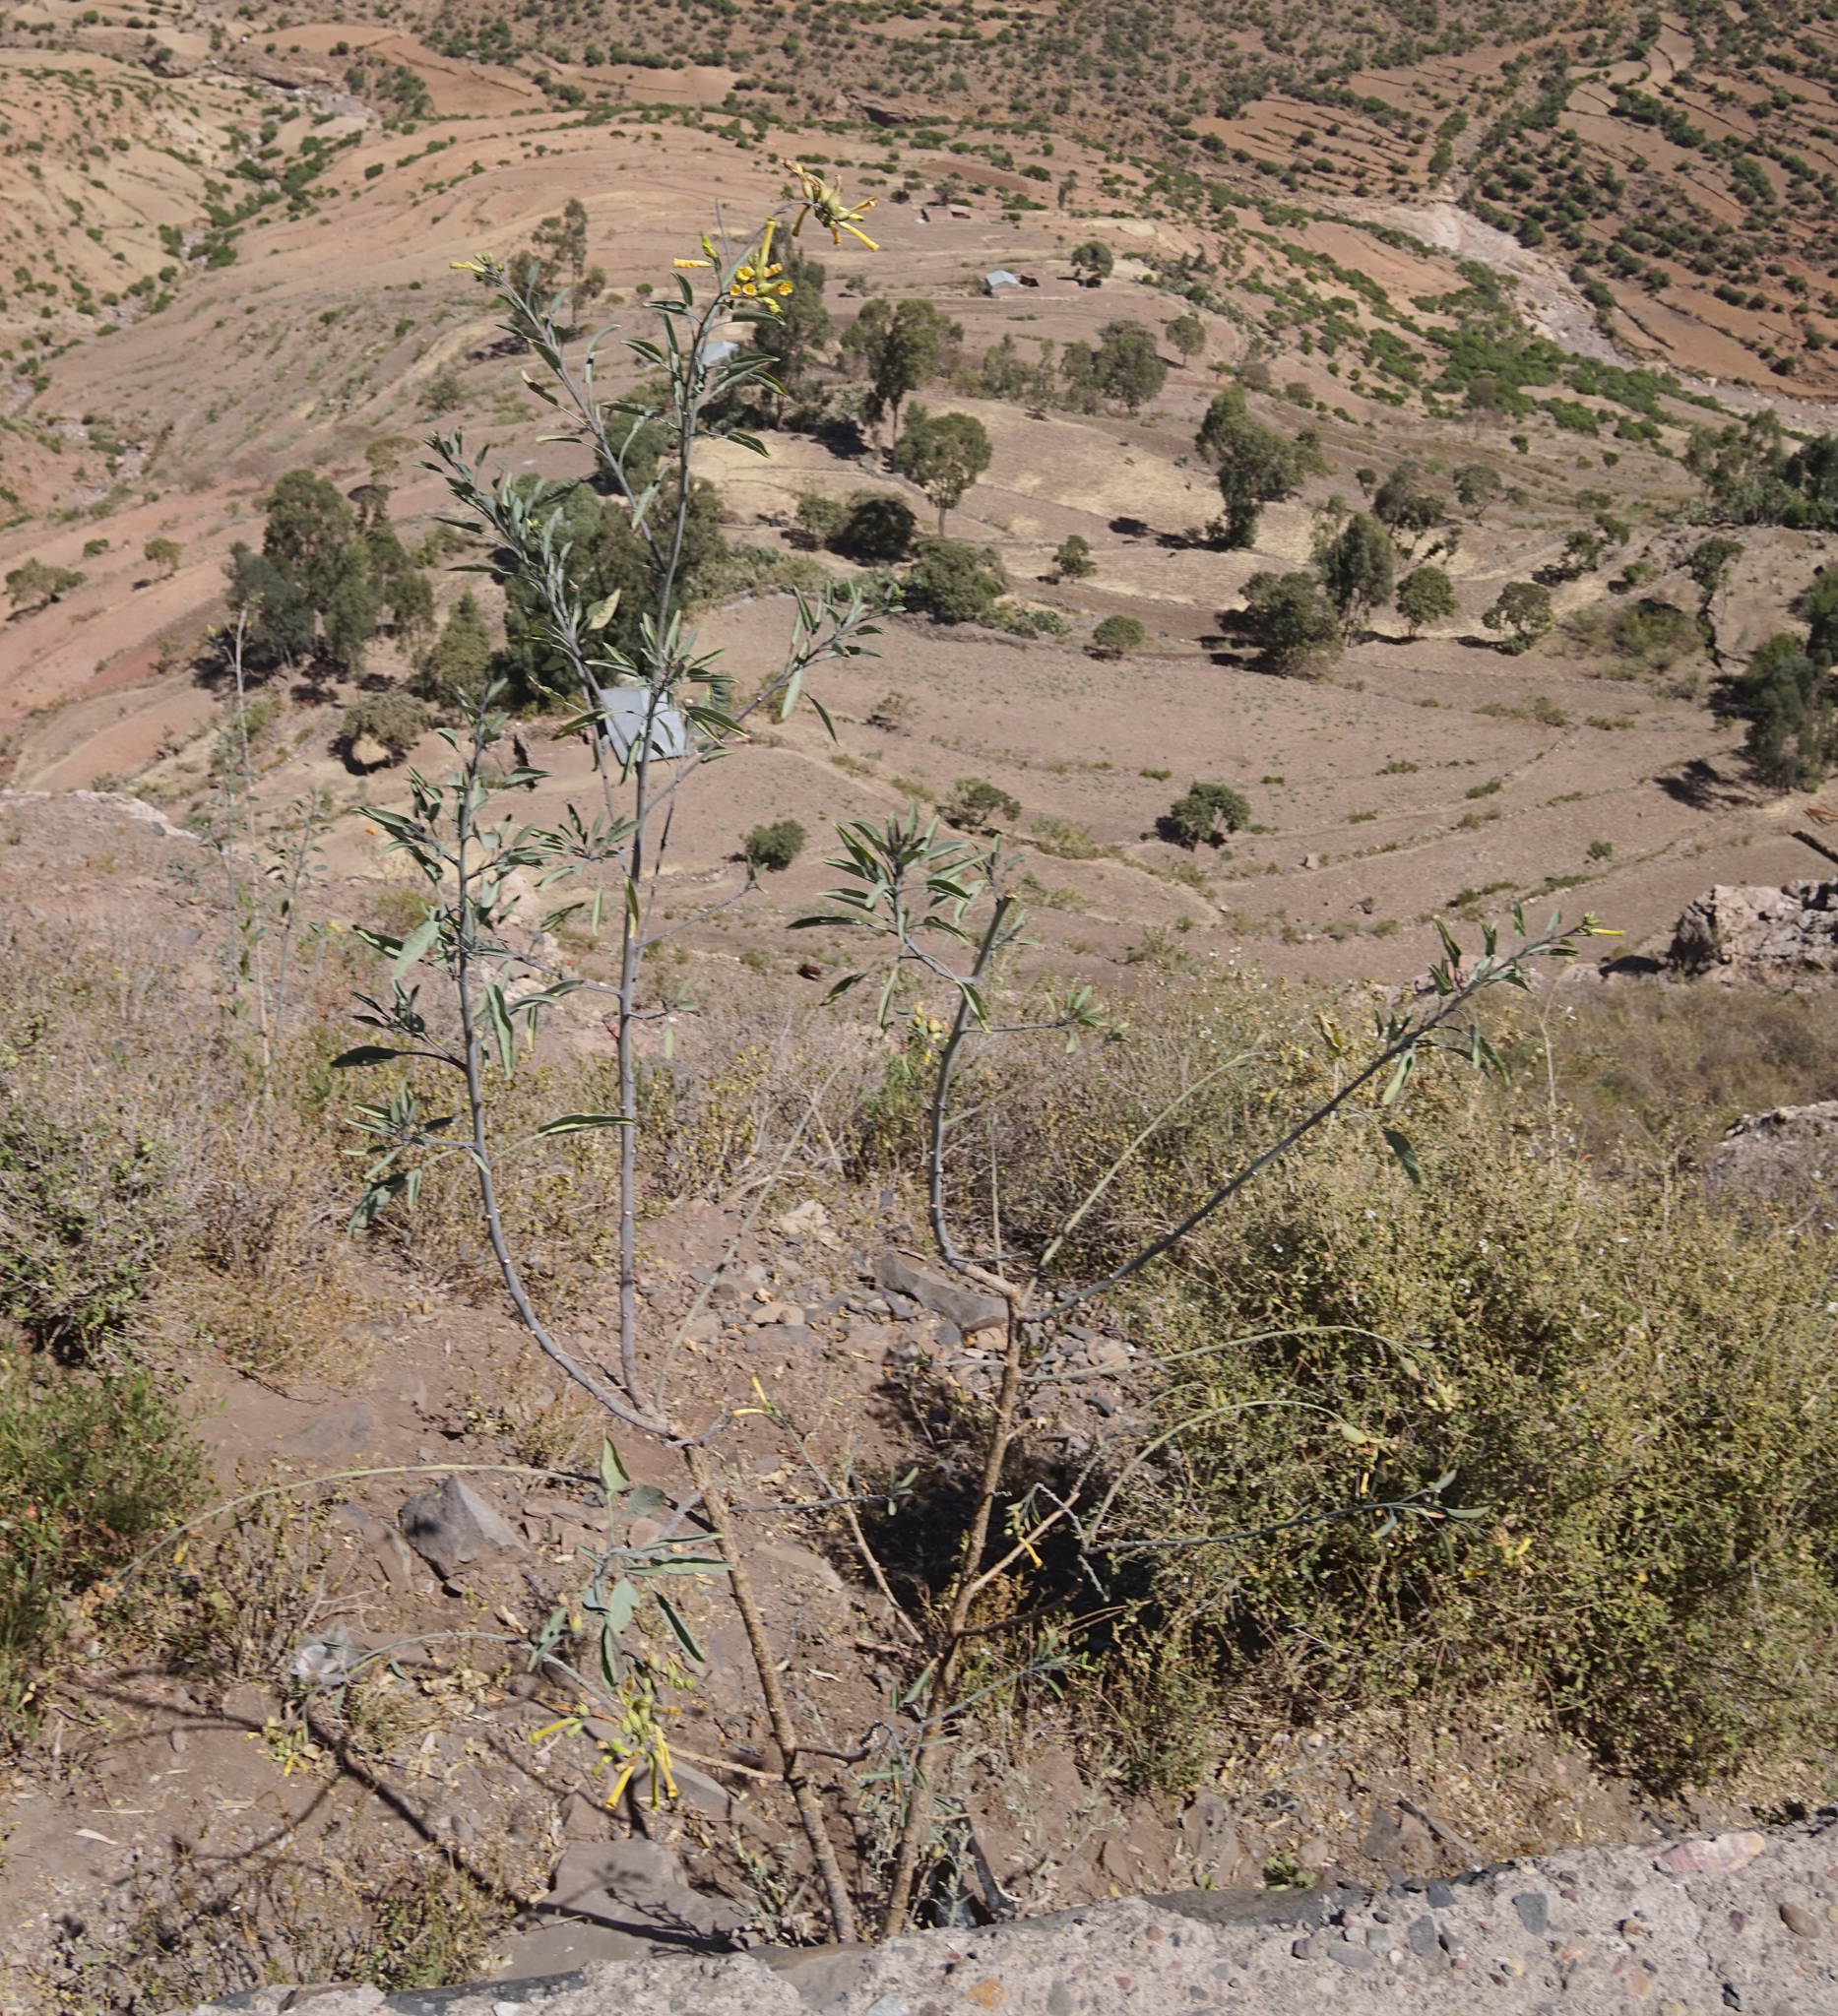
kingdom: Plantae
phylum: Tracheophyta
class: Magnoliopsida
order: Solanales
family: Solanaceae
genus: Nicotiana
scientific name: Nicotiana glauca
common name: Tree tobacco
